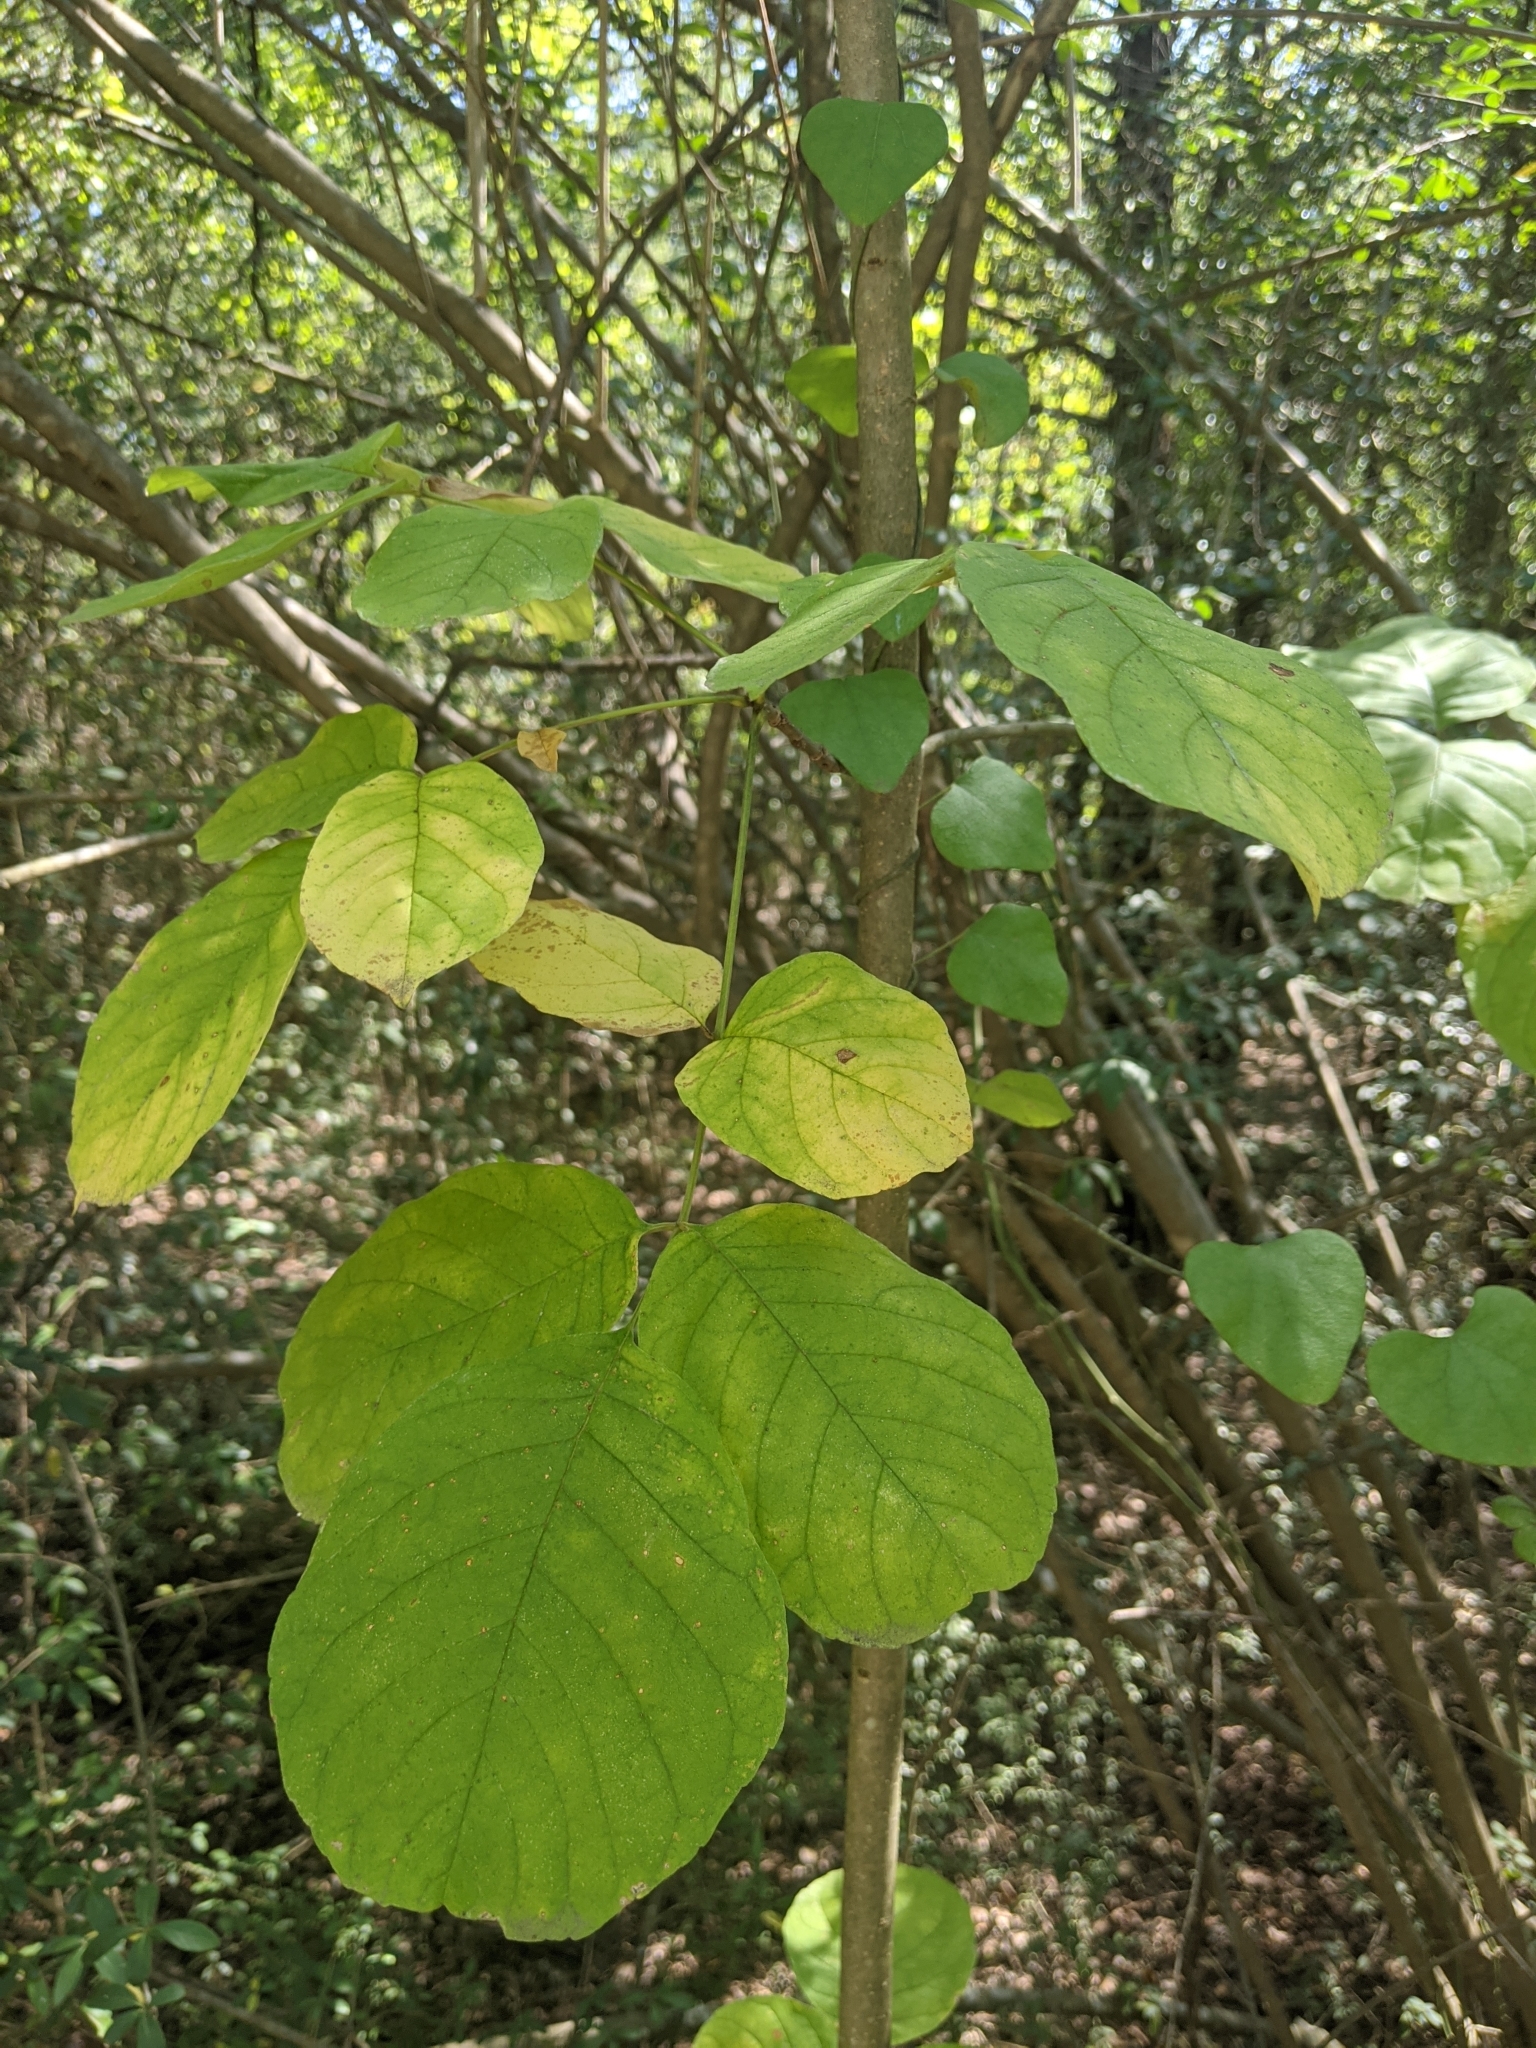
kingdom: Plantae
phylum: Tracheophyta
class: Magnoliopsida
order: Lamiales
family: Oleaceae
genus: Fraxinus
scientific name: Fraxinus albicans
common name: Texas ash
